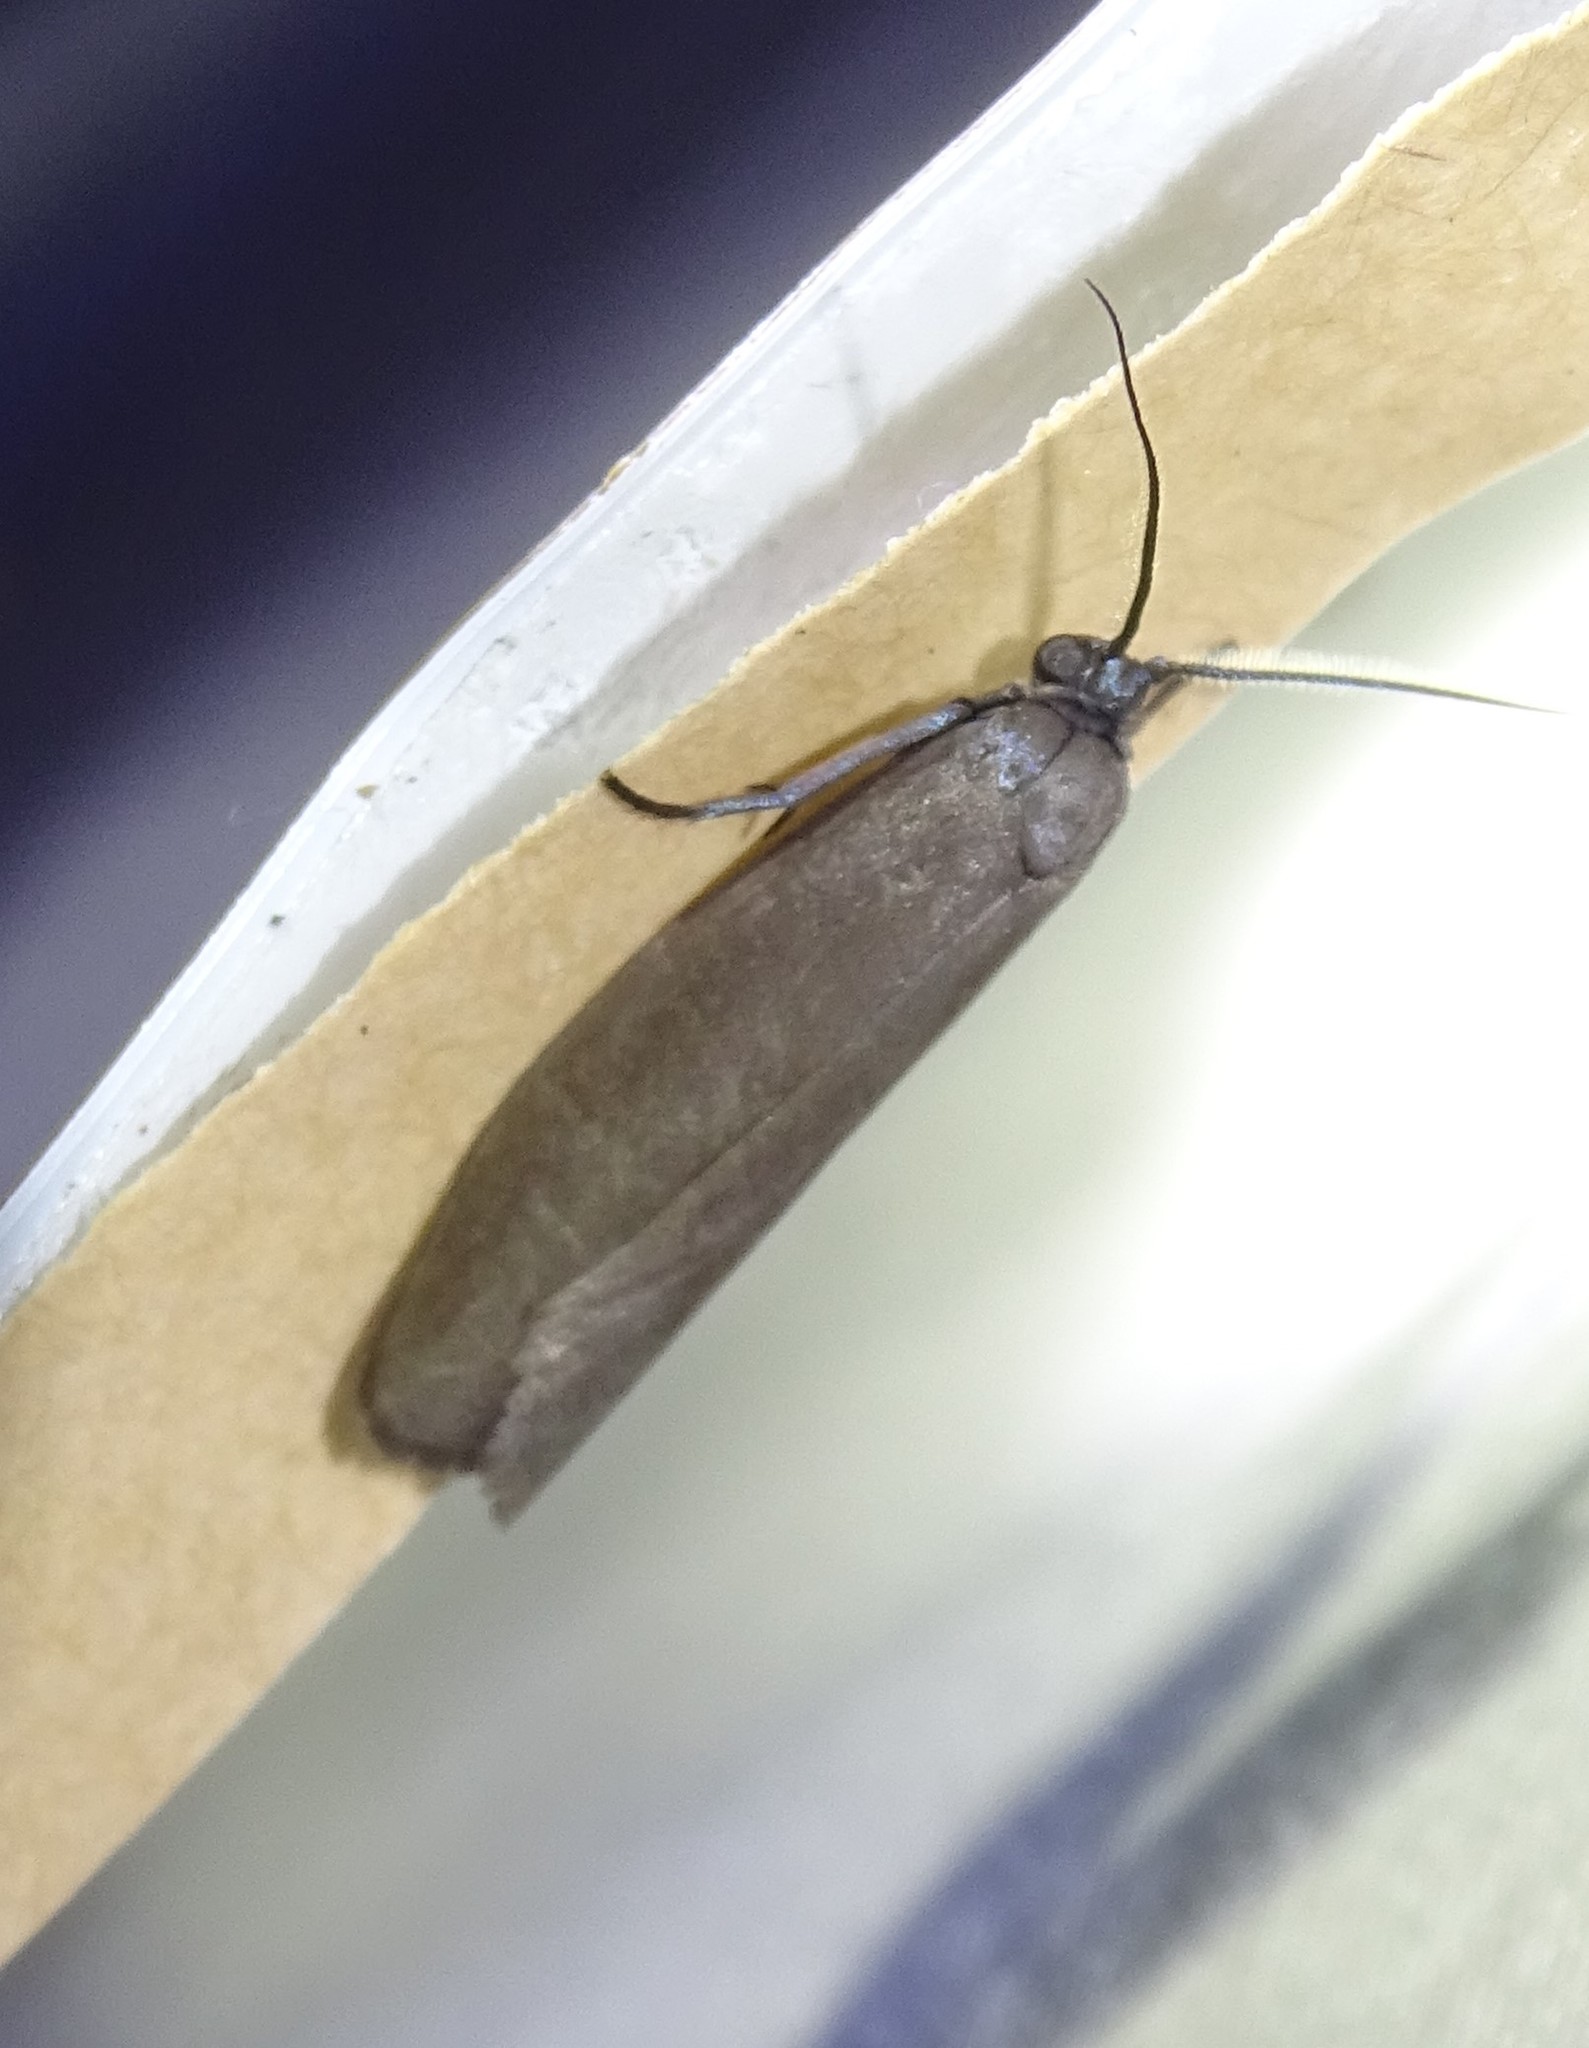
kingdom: Animalia
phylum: Arthropoda
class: Insecta
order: Lepidoptera
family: Urodidae
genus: Urodus
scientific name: Urodus parvula
